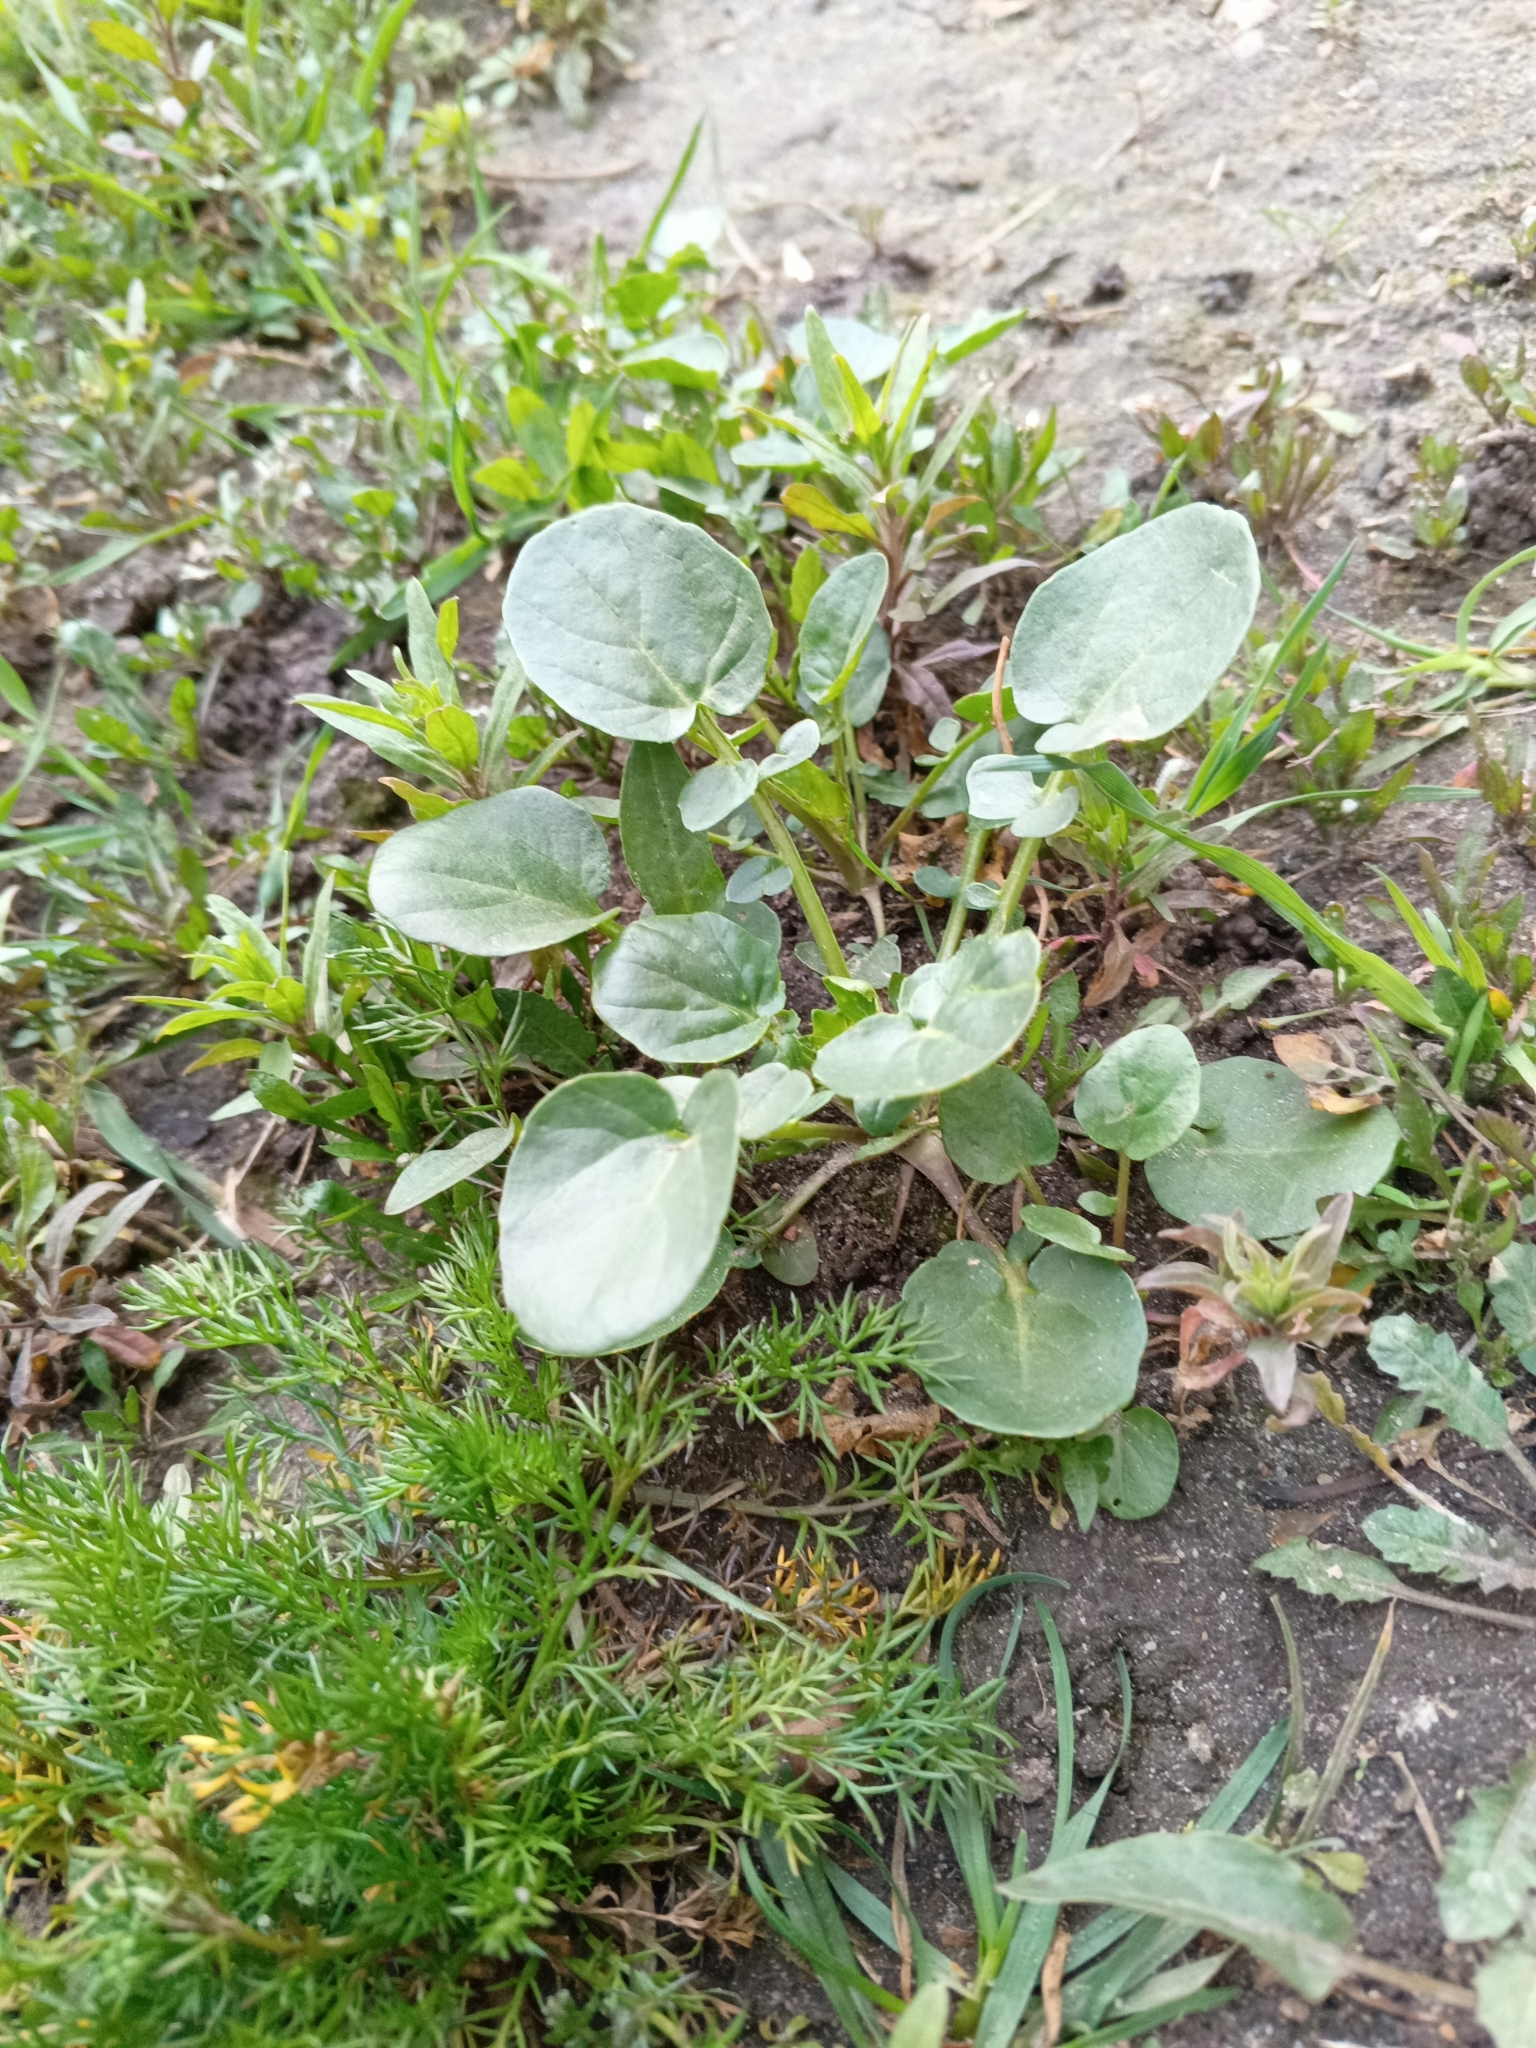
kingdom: Plantae
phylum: Tracheophyta
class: Magnoliopsida
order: Brassicales
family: Brassicaceae
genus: Barbarea
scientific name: Barbarea vulgaris
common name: Cressy-greens
